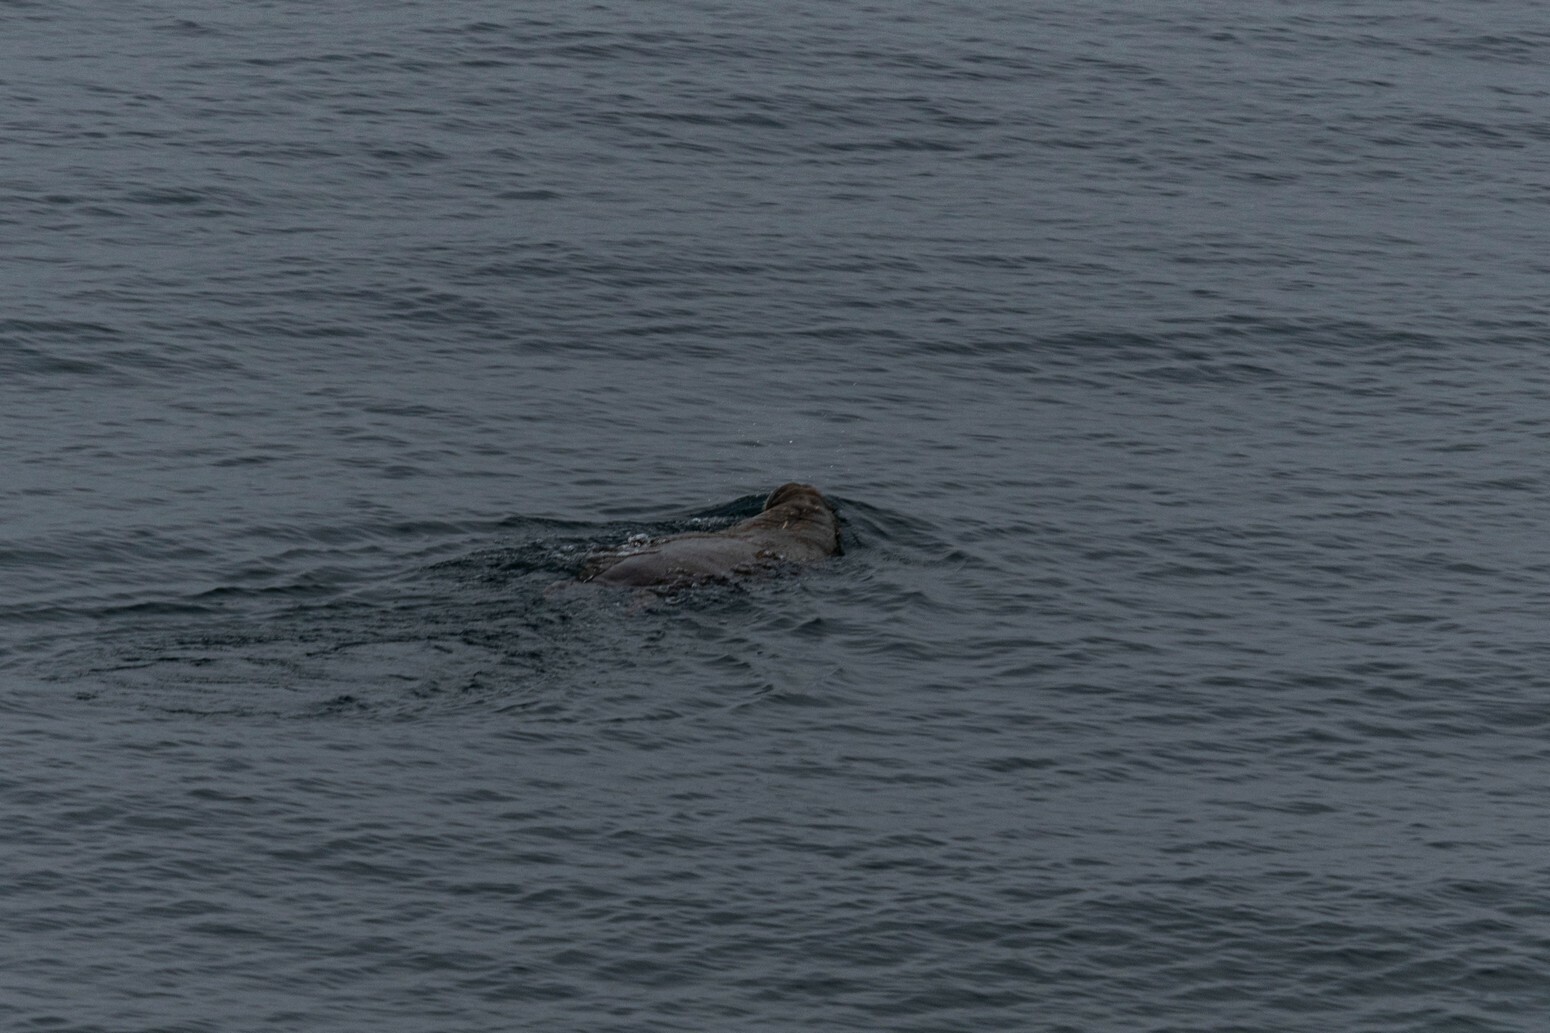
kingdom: Animalia
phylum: Chordata
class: Mammalia
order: Carnivora
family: Odobenidae
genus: Odobenus
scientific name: Odobenus rosmarus
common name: Walrus
